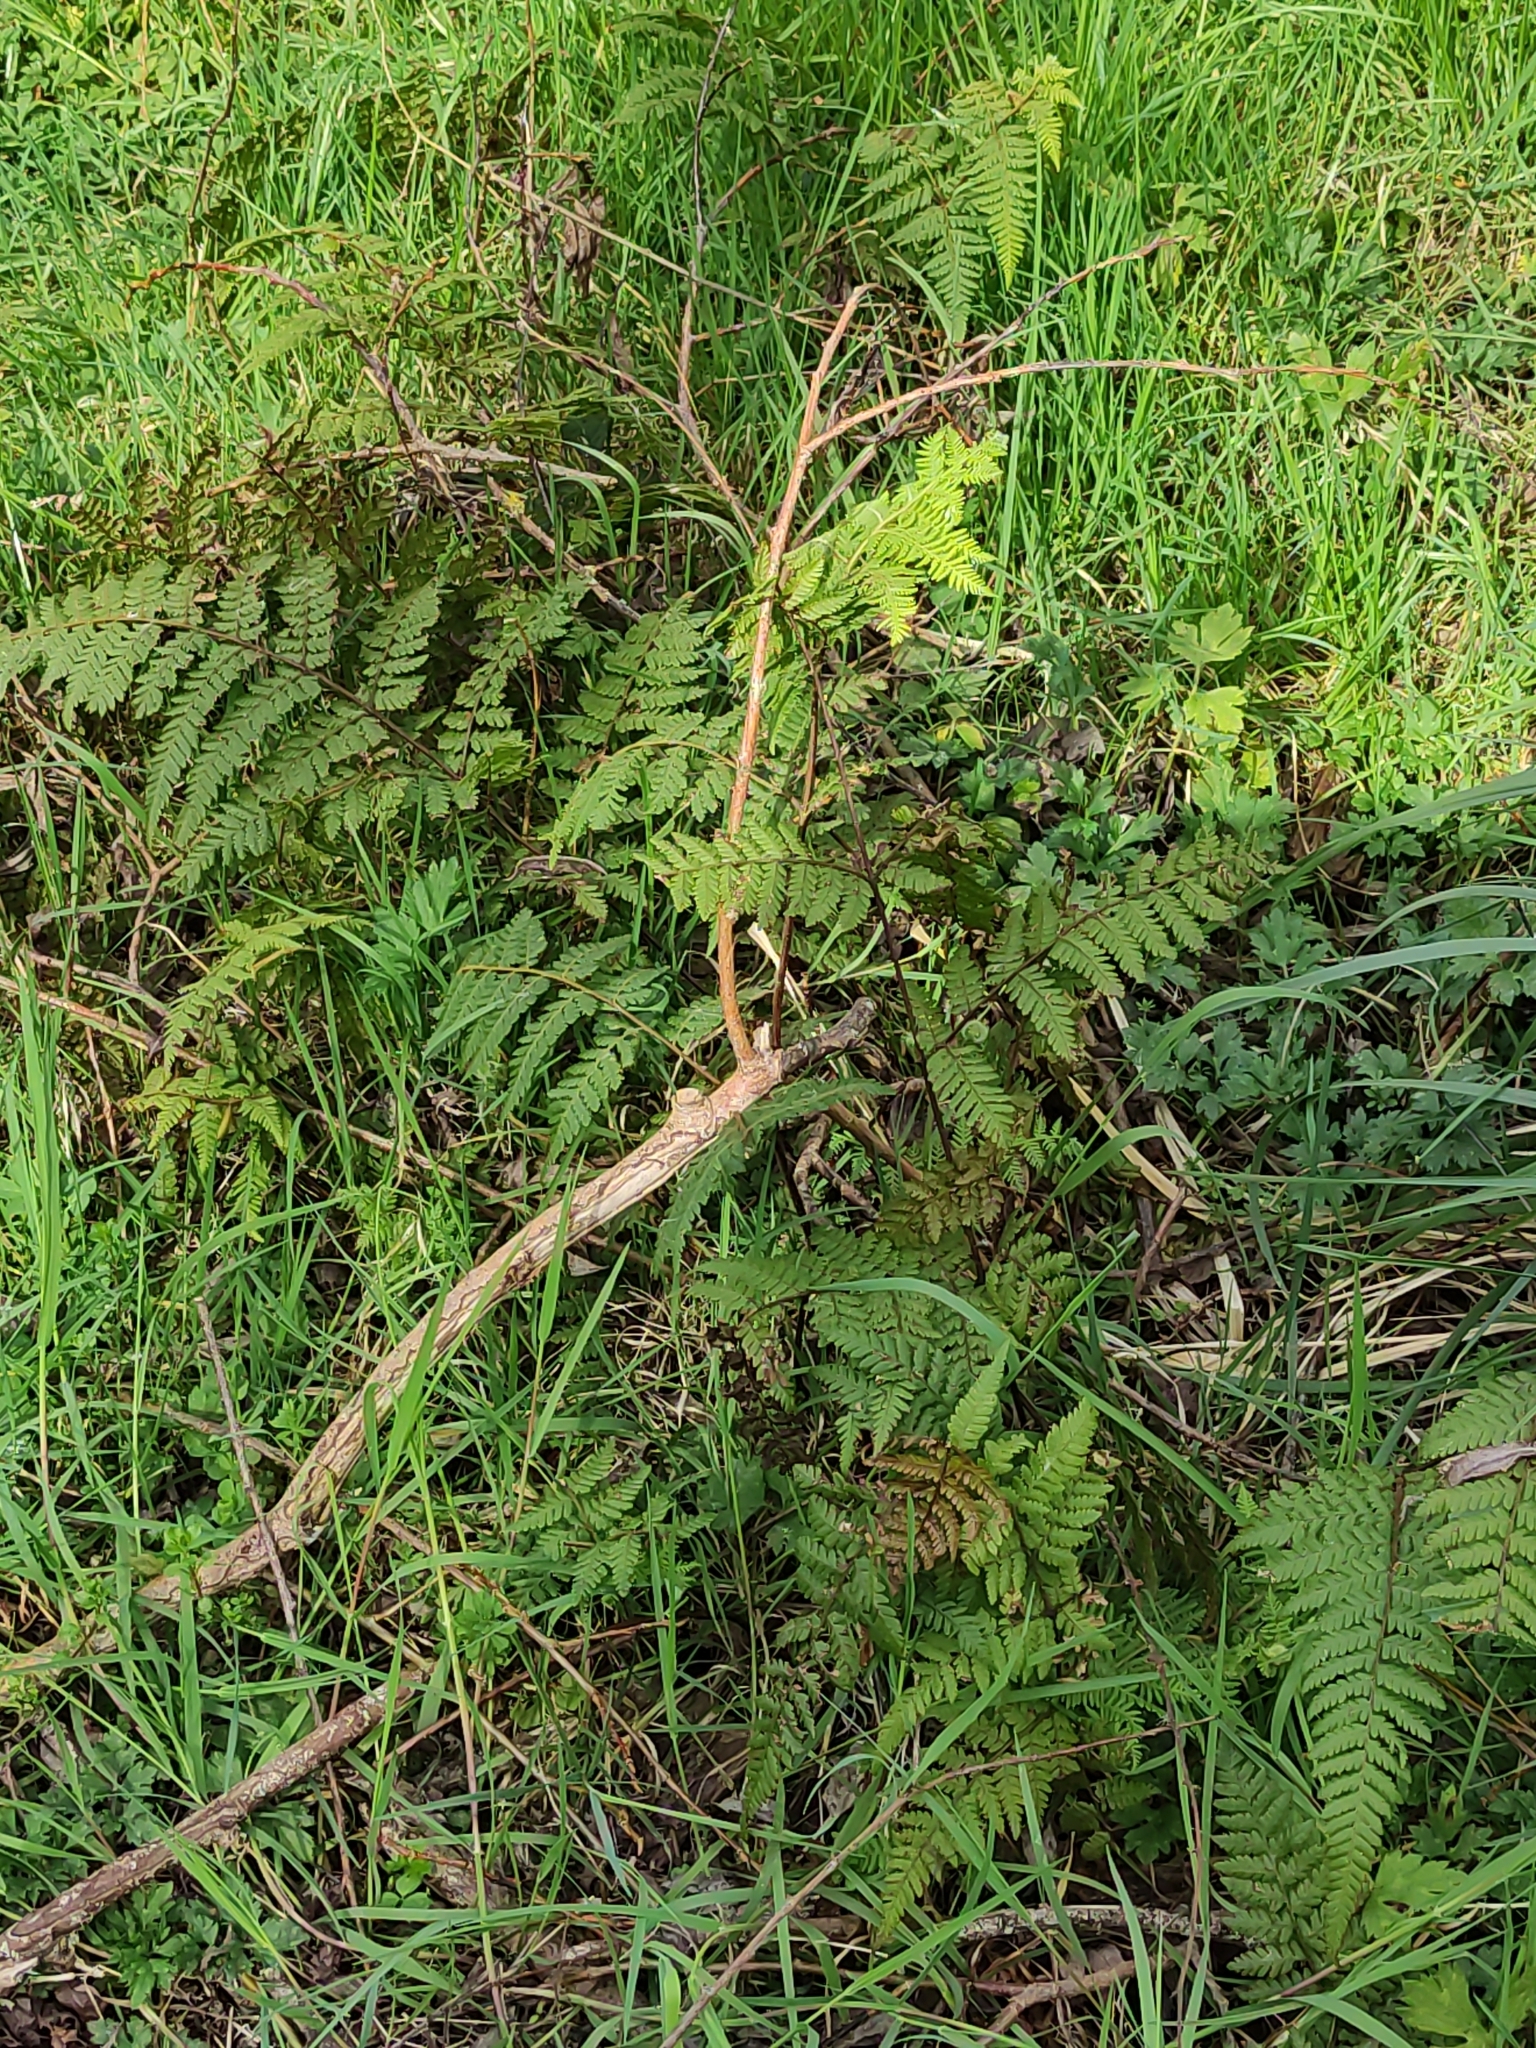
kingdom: Plantae
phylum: Tracheophyta
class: Polypodiopsida
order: Polypodiales
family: Dennstaedtiaceae
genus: Hypolepis
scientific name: Hypolepis ambigua
